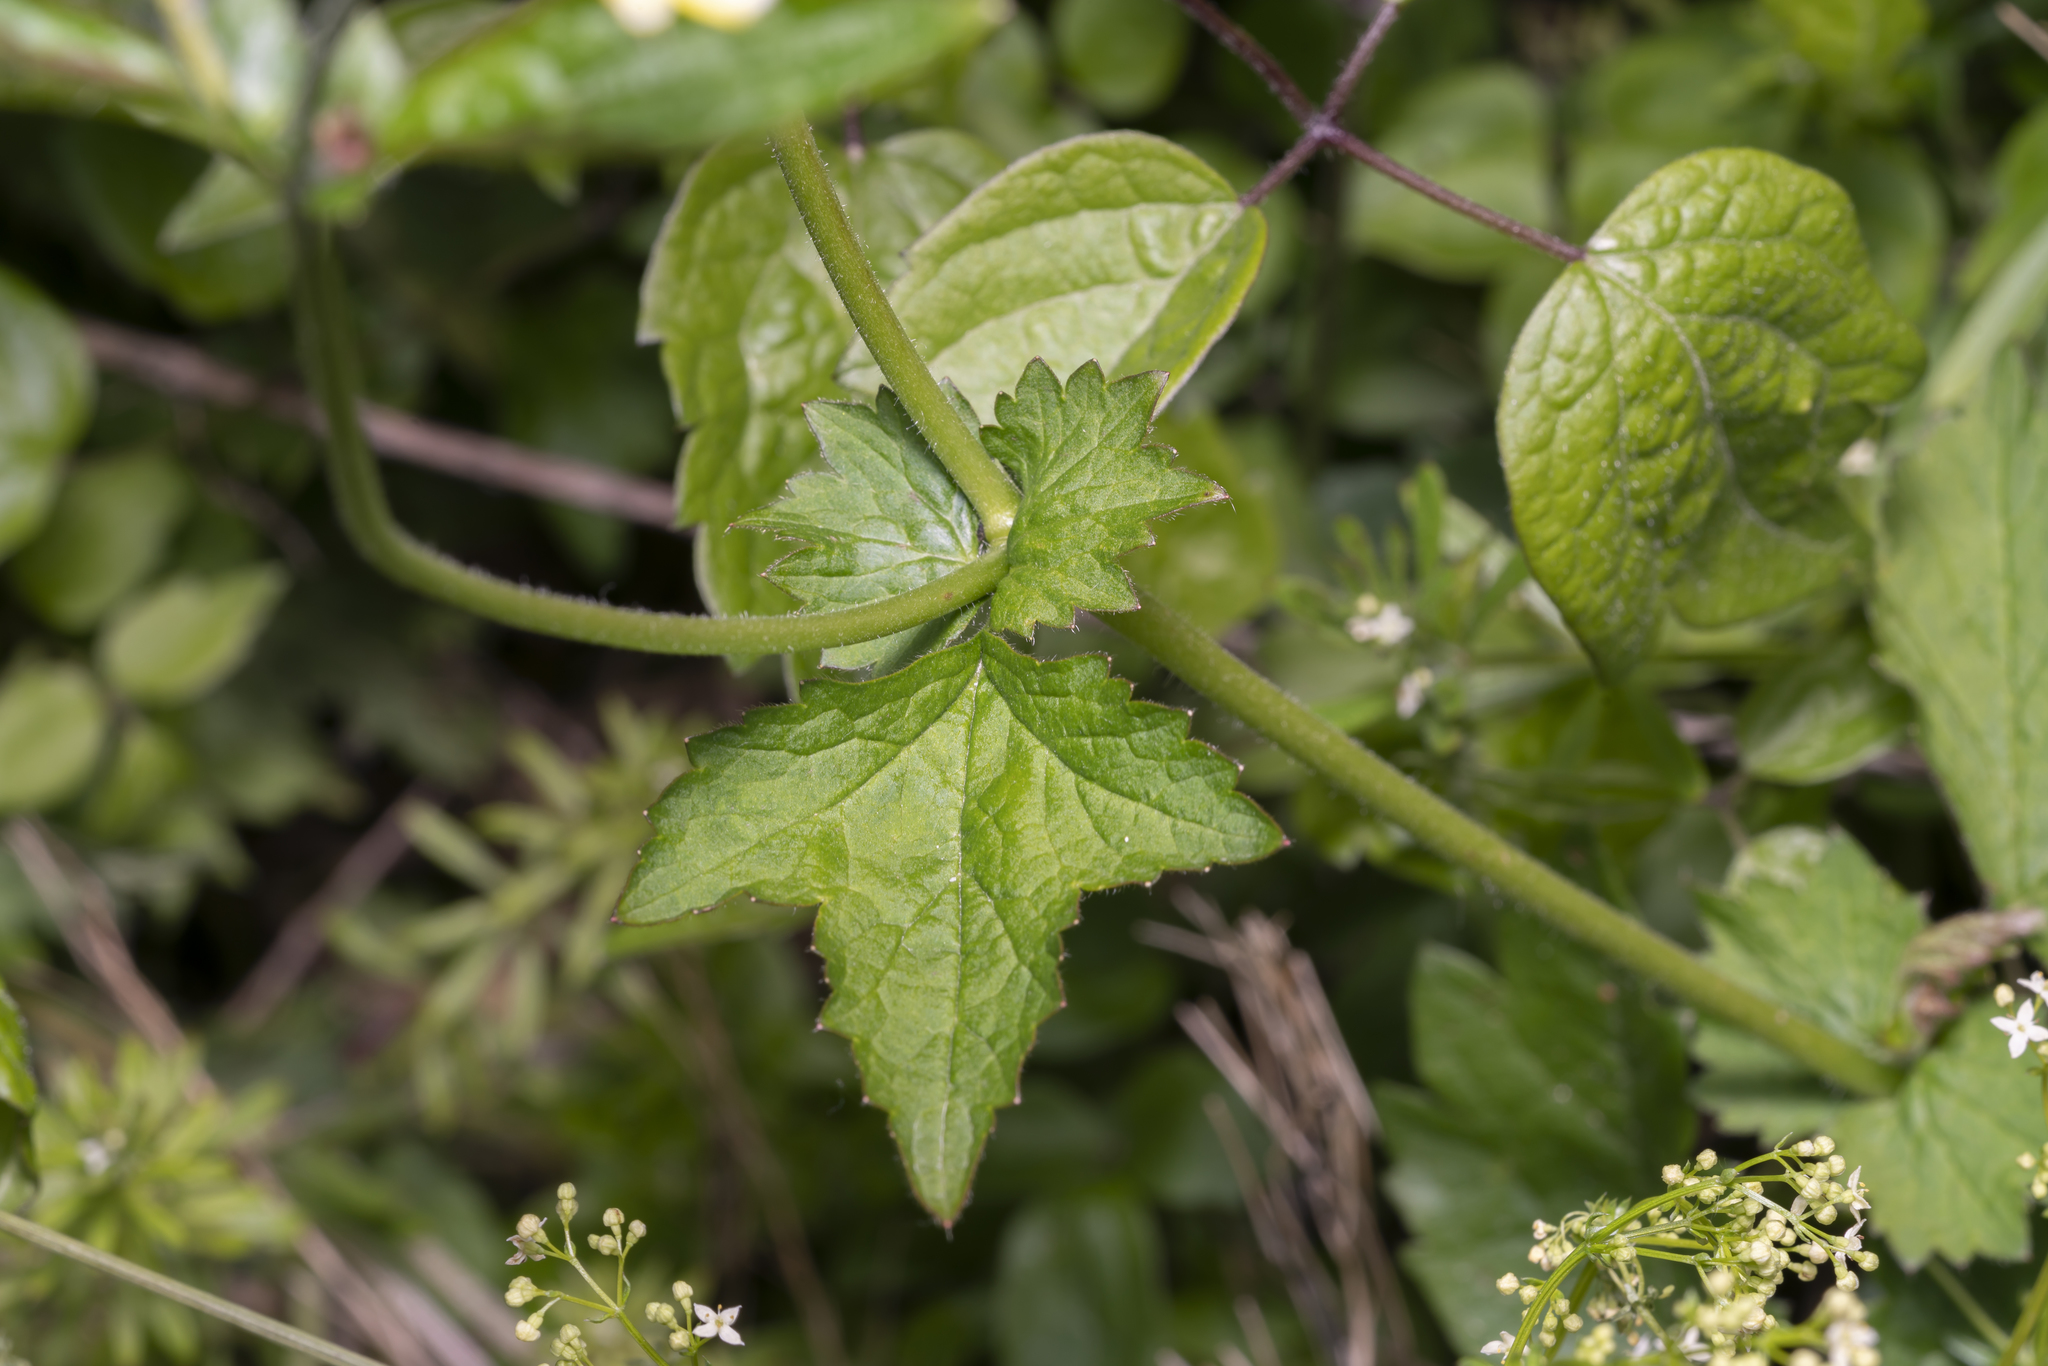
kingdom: Plantae
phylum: Tracheophyta
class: Magnoliopsida
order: Rosales
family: Rosaceae
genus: Geum
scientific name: Geum urbanum
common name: Wood avens
